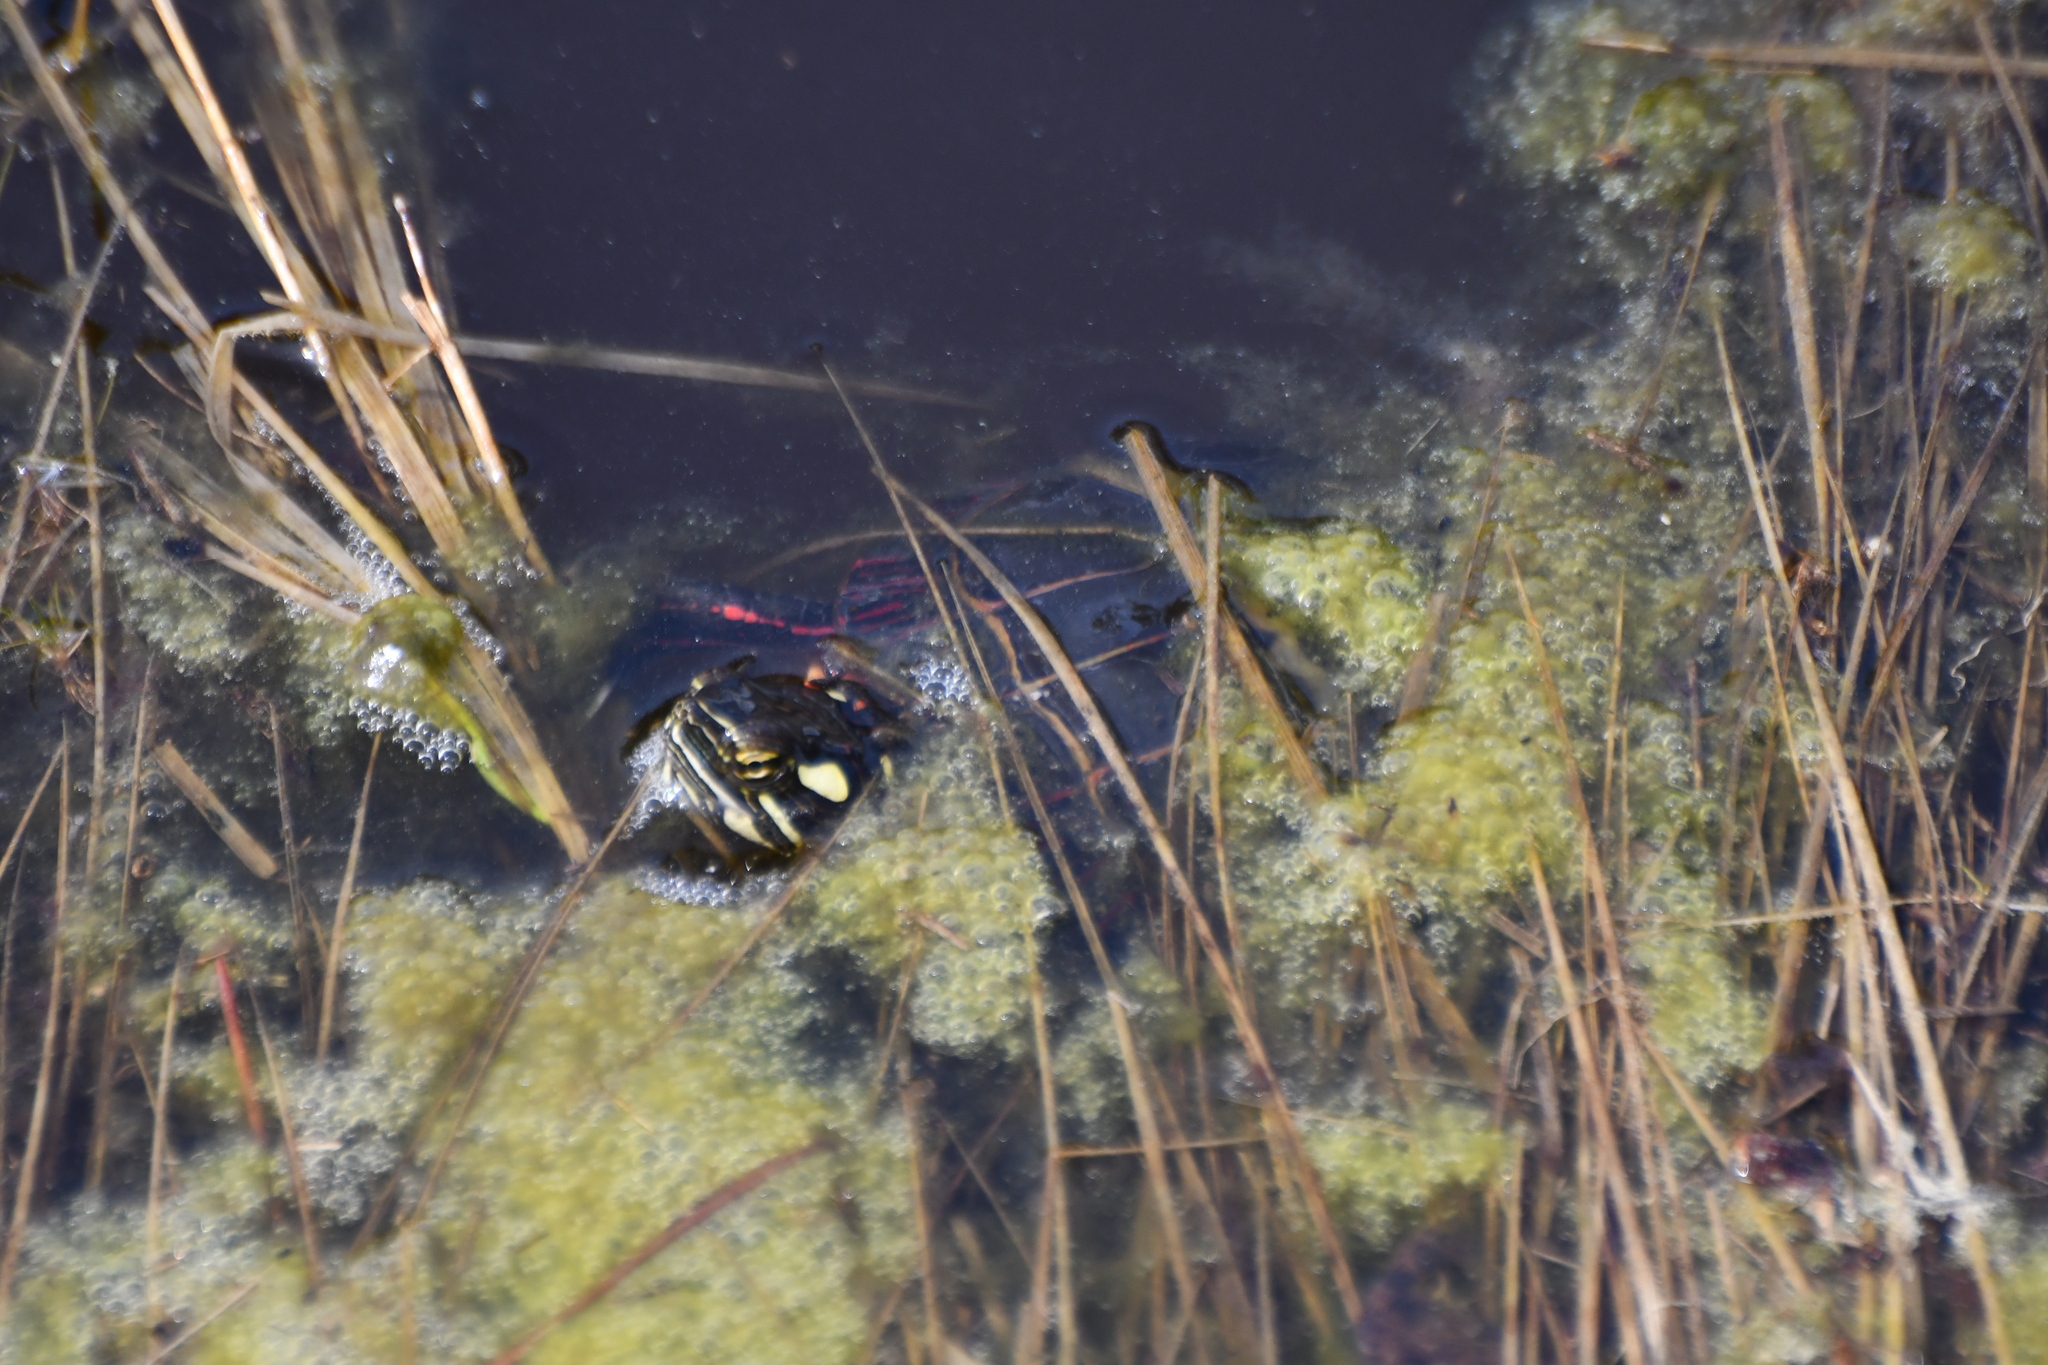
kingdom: Animalia
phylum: Chordata
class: Testudines
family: Emydidae
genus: Chrysemys
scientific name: Chrysemys picta
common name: Painted turtle
